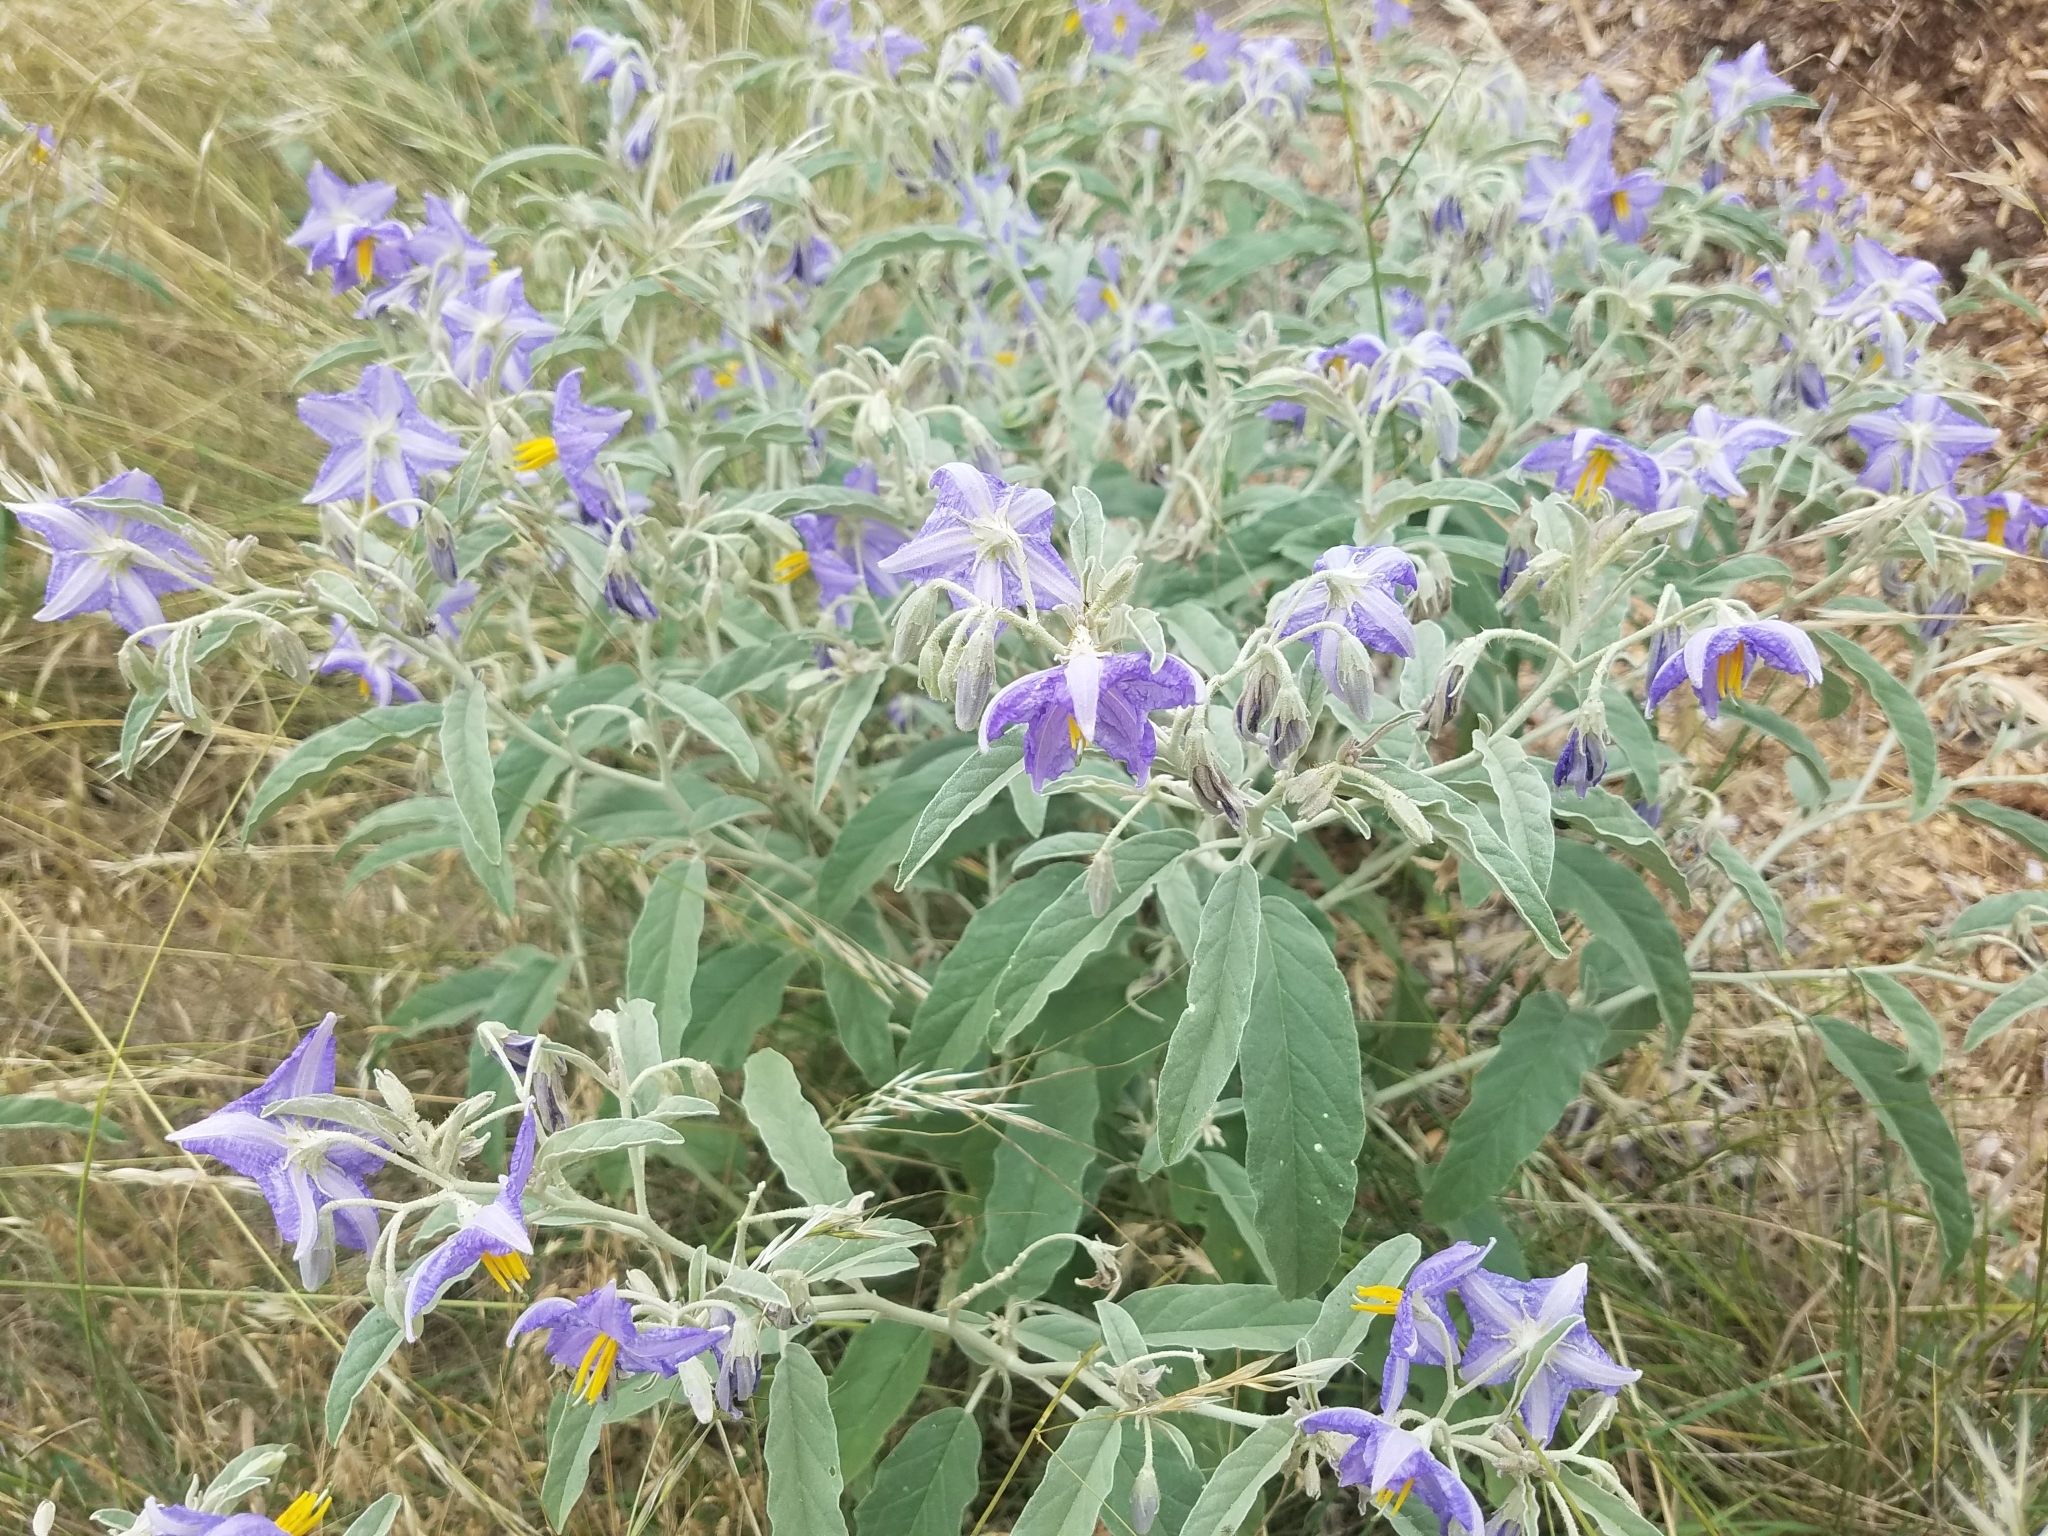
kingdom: Plantae
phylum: Tracheophyta
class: Magnoliopsida
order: Solanales
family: Solanaceae
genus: Solanum
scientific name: Solanum elaeagnifolium
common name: Silverleaf nightshade
